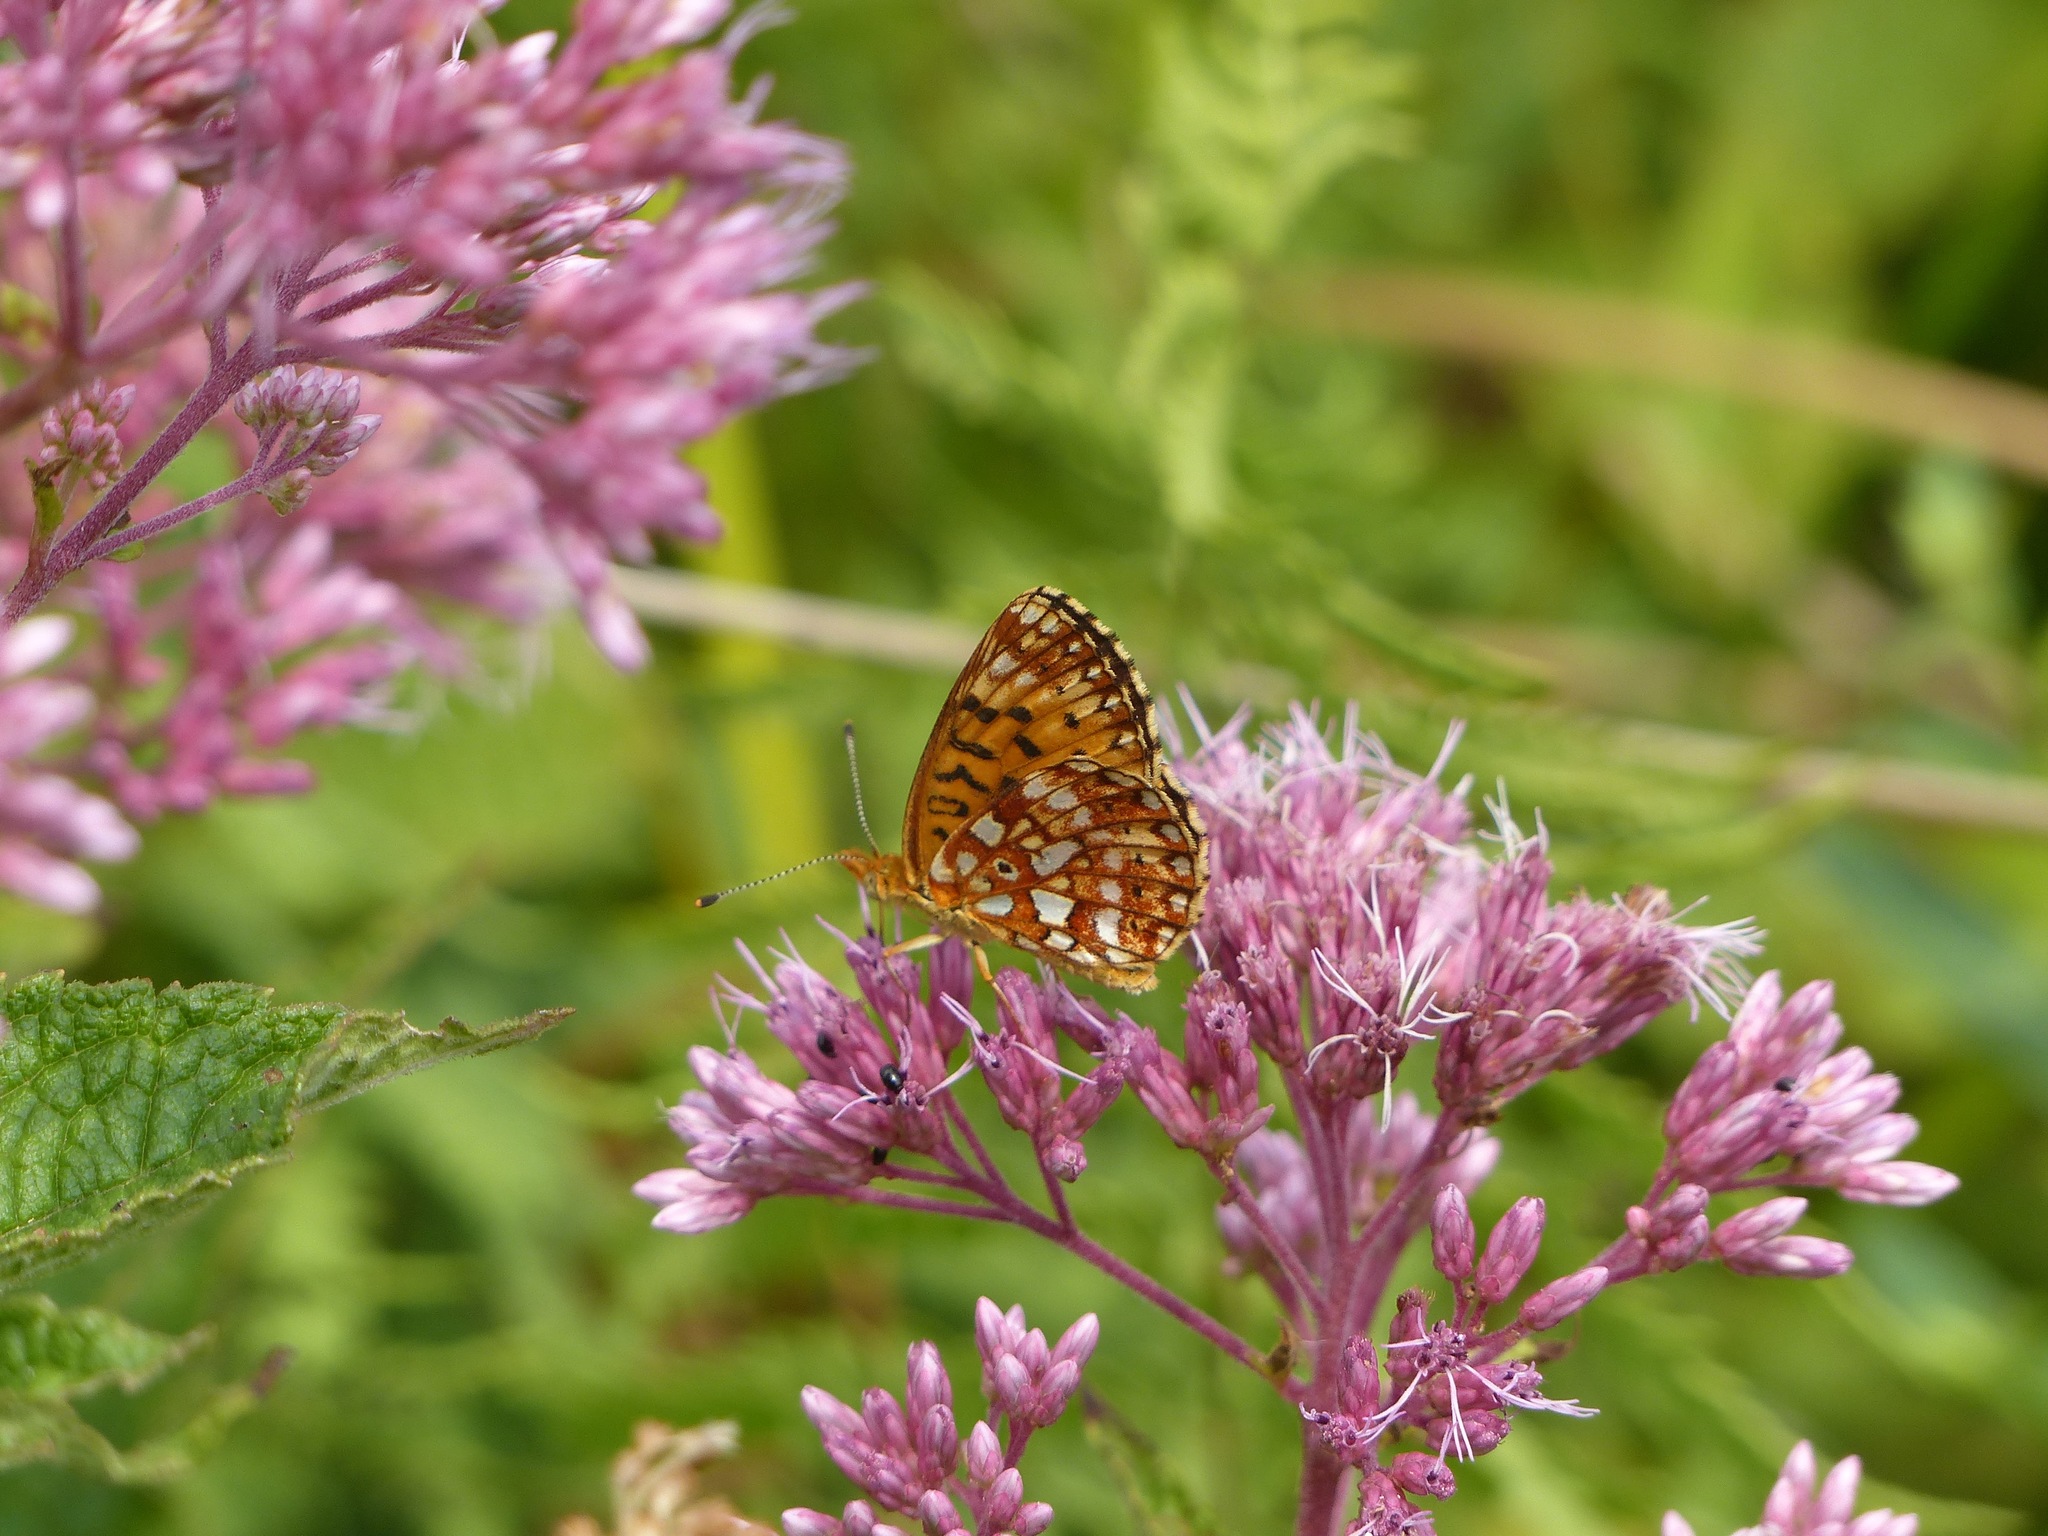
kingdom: Animalia
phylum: Arthropoda
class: Insecta
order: Lepidoptera
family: Nymphalidae
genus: Boloria
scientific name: Boloria
